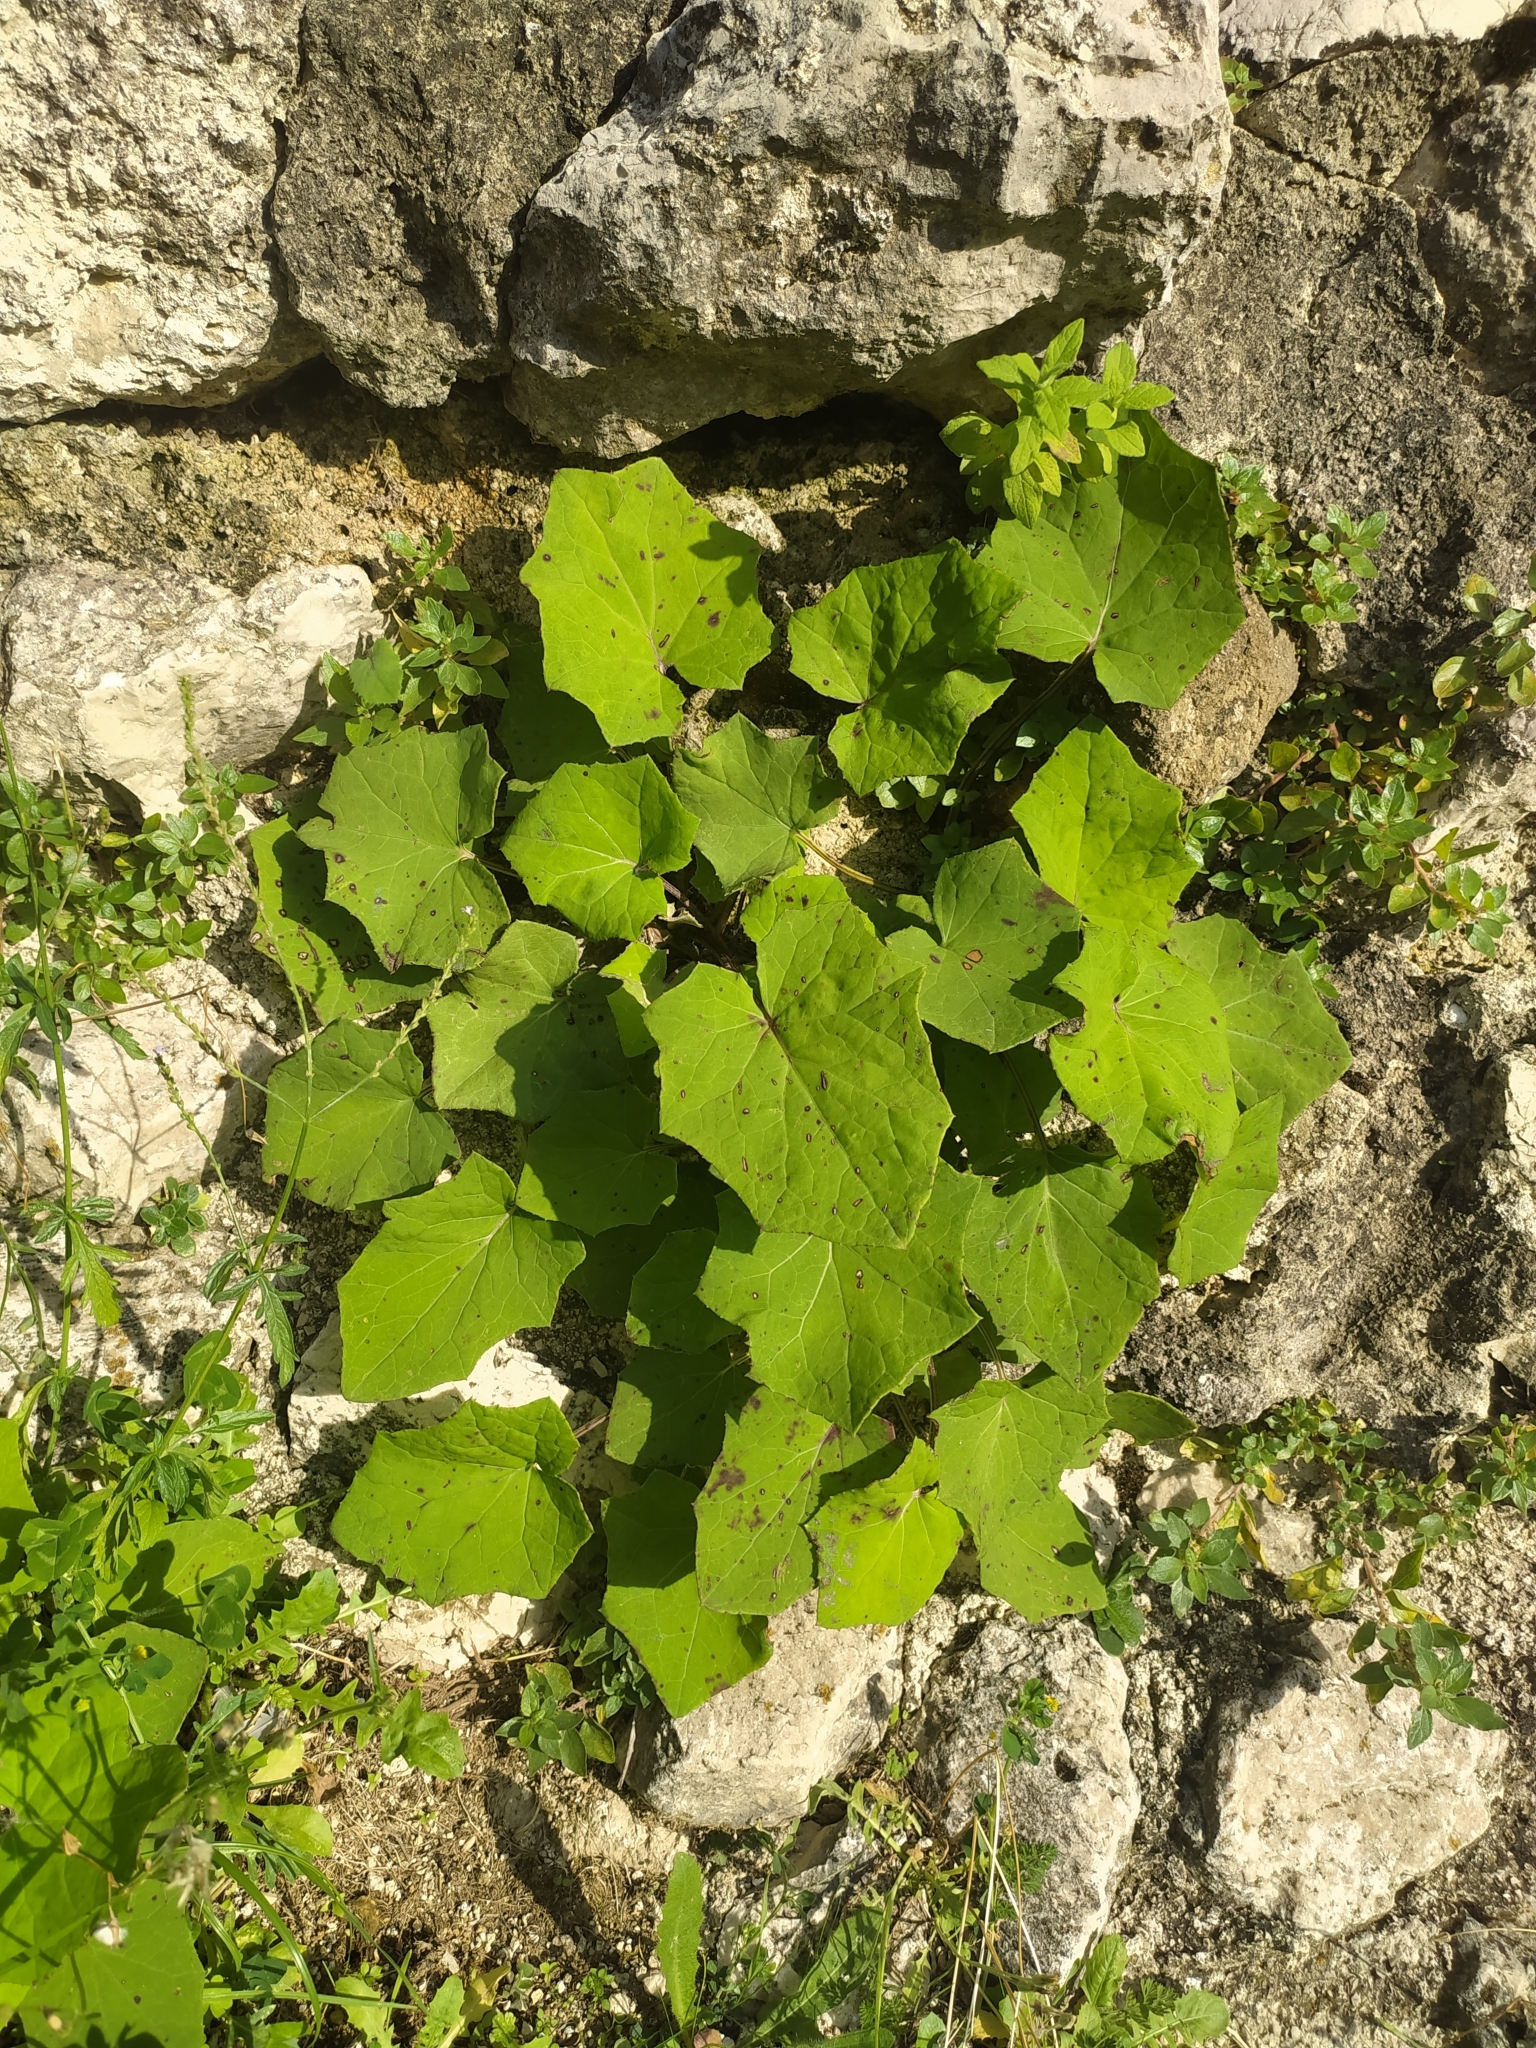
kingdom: Plantae
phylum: Tracheophyta
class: Magnoliopsida
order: Asterales
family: Asteraceae
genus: Tussilago
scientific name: Tussilago farfara
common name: Coltsfoot
